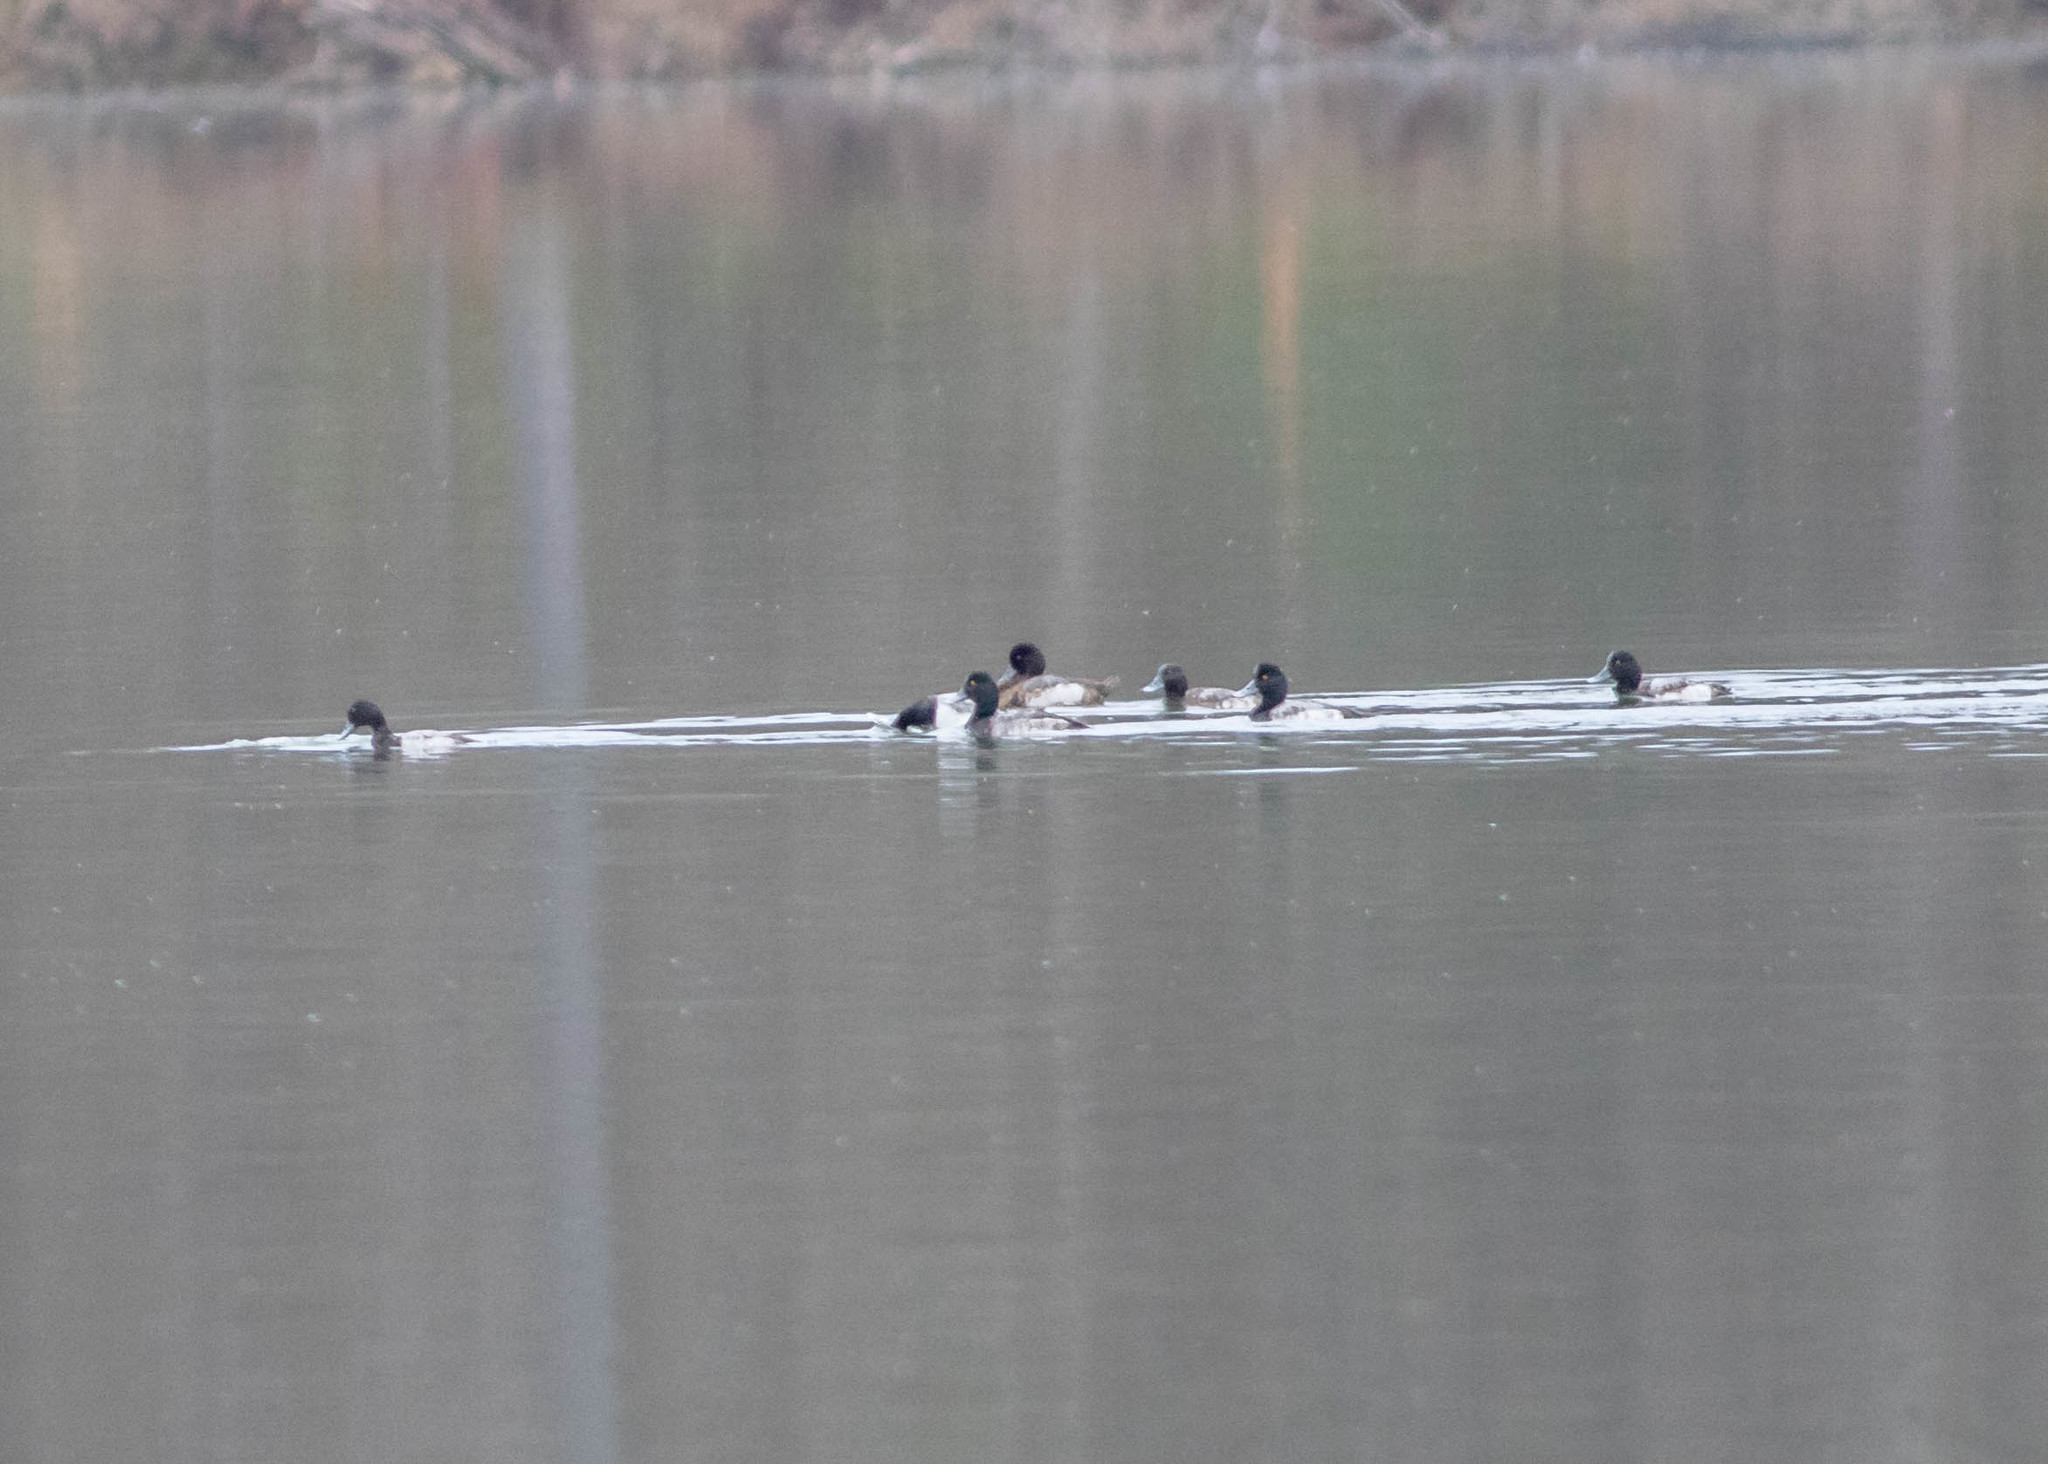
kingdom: Animalia
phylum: Chordata
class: Aves
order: Anseriformes
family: Anatidae
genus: Aythya
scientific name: Aythya affinis
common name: Lesser scaup
